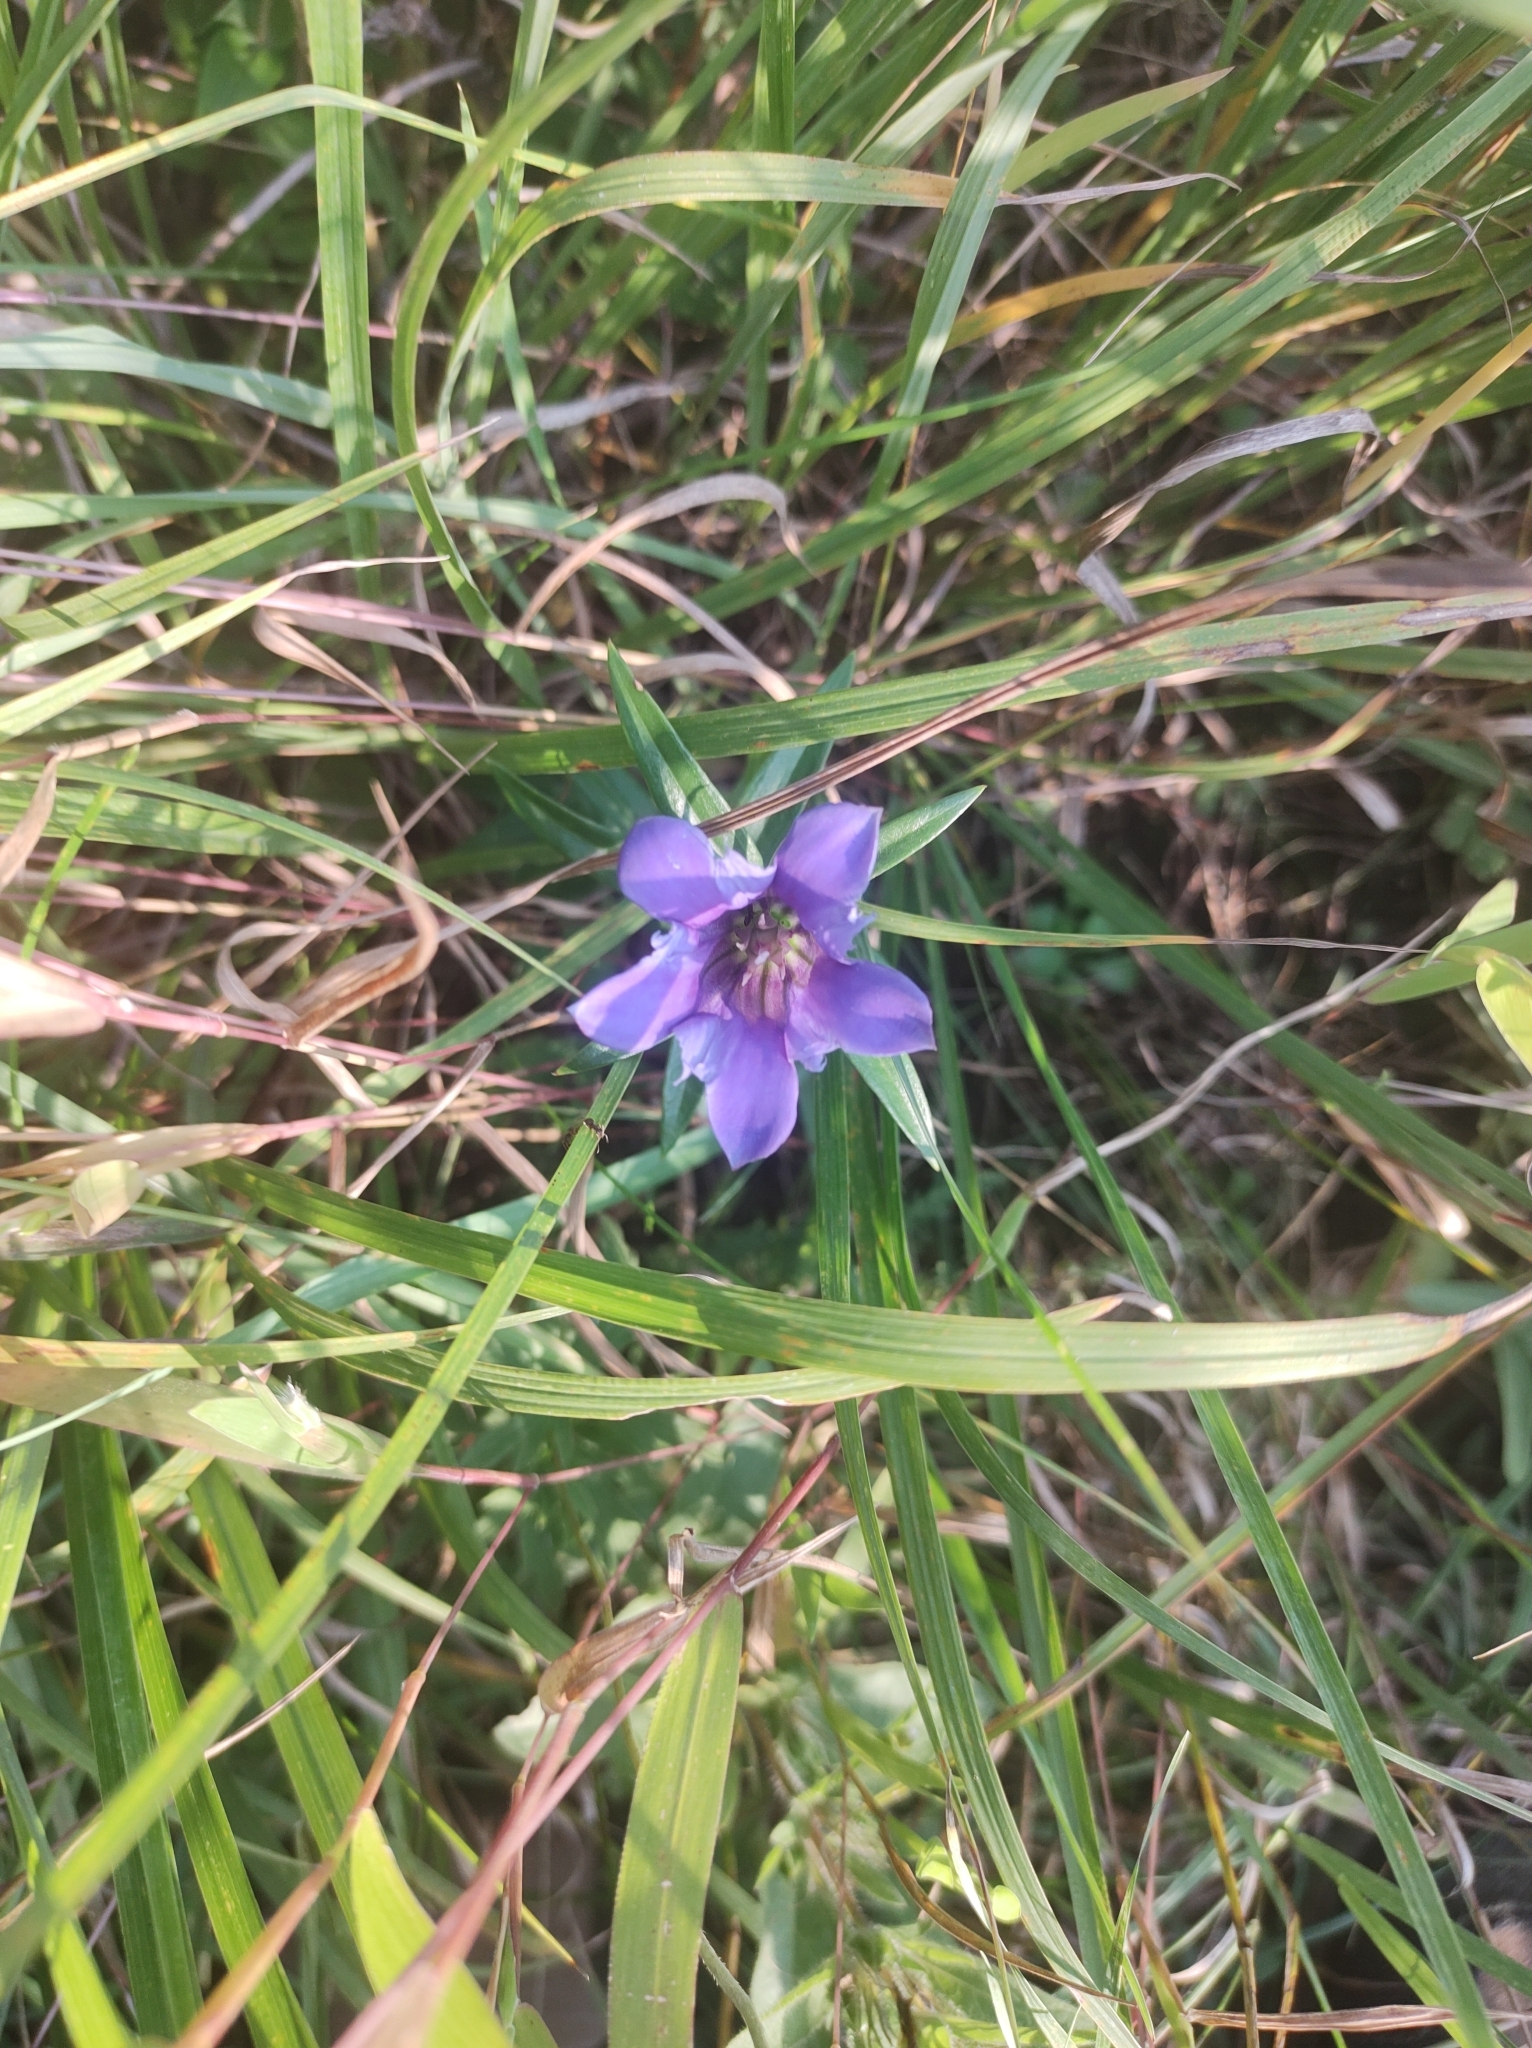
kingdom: Plantae
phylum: Tracheophyta
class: Magnoliopsida
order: Gentianales
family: Gentianaceae
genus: Gentiana
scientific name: Gentiana puberulenta
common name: Downy gentian
